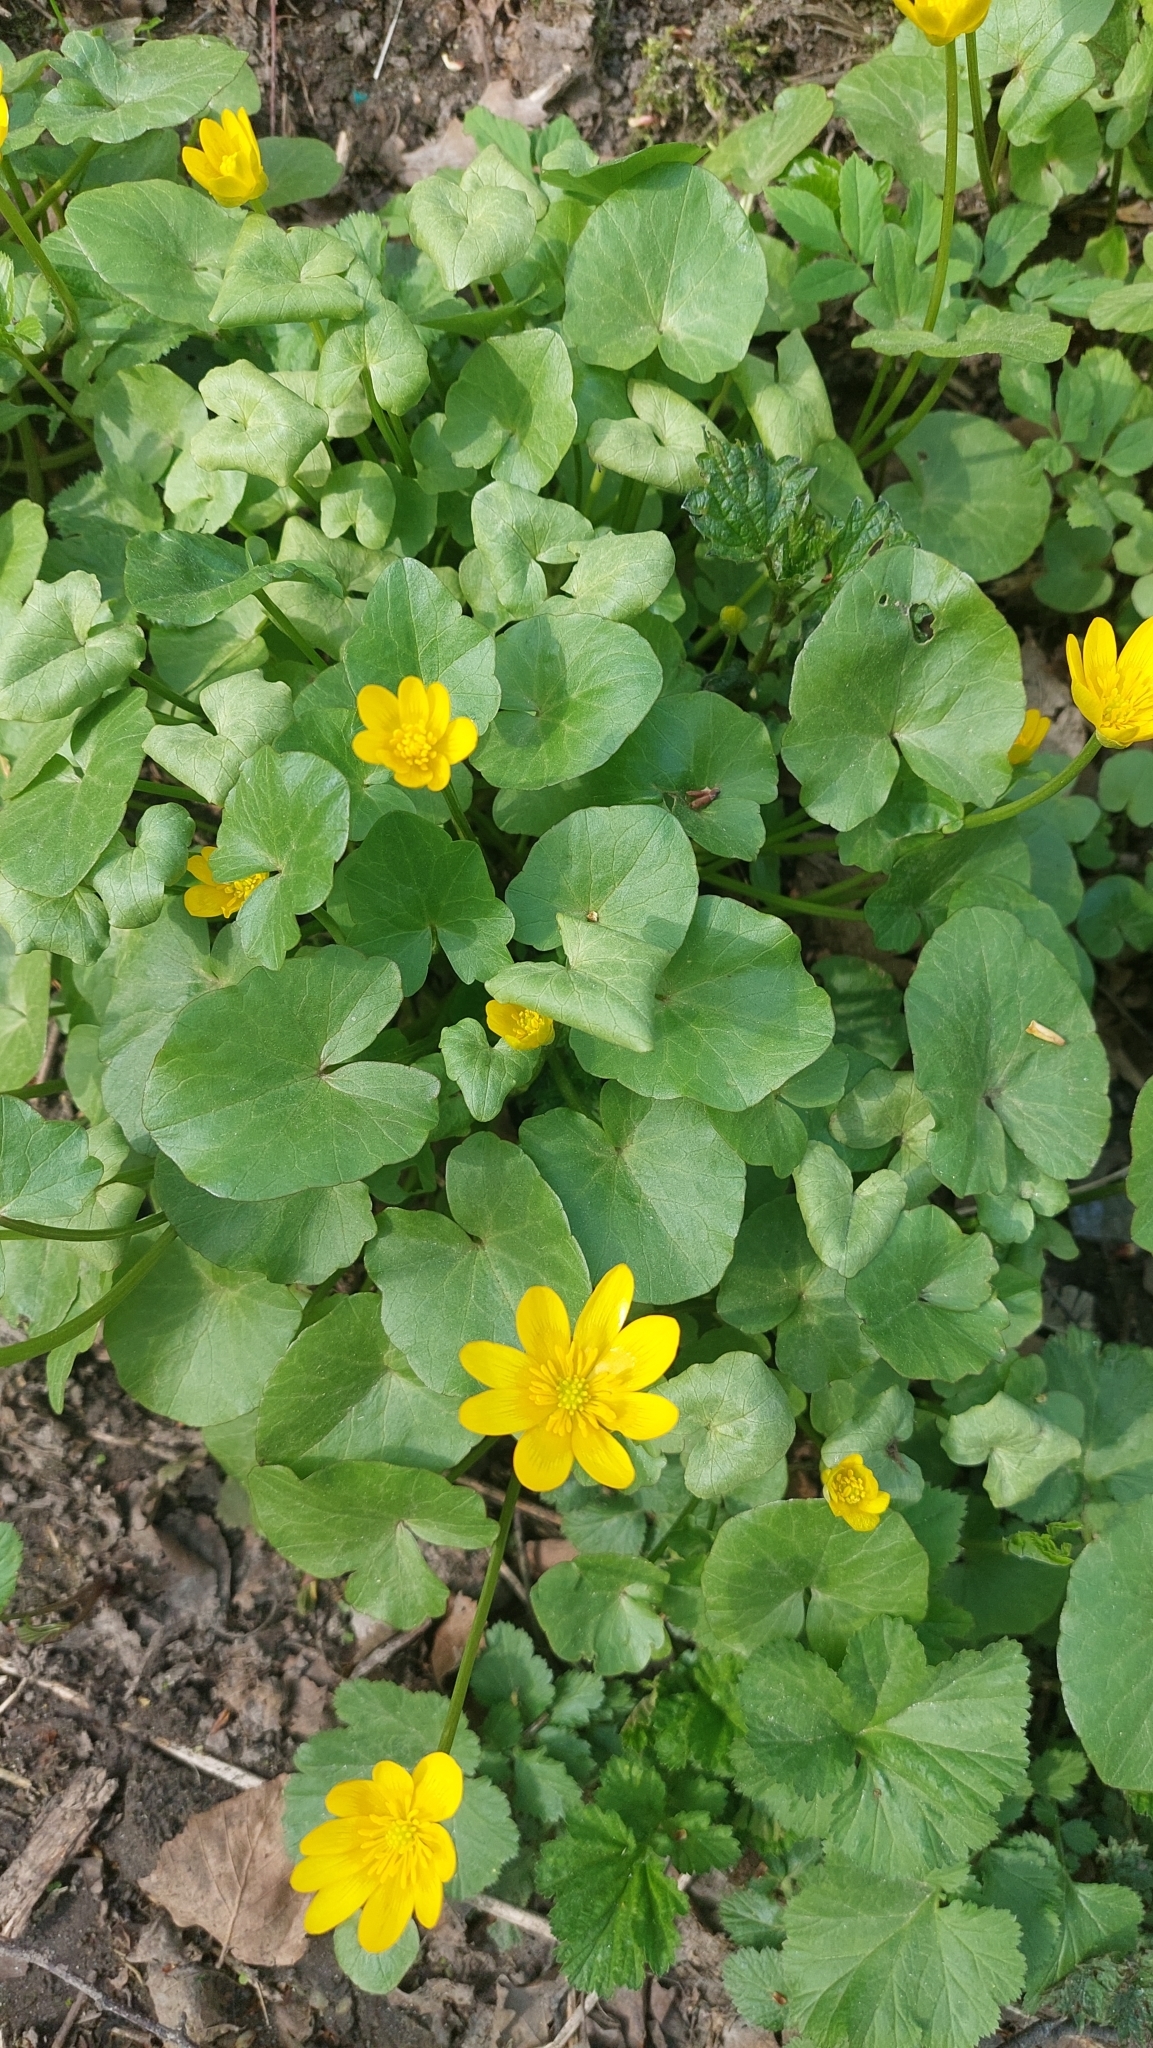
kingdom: Plantae
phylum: Tracheophyta
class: Magnoliopsida
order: Ranunculales
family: Ranunculaceae
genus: Ficaria
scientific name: Ficaria verna
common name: Lesser celandine
